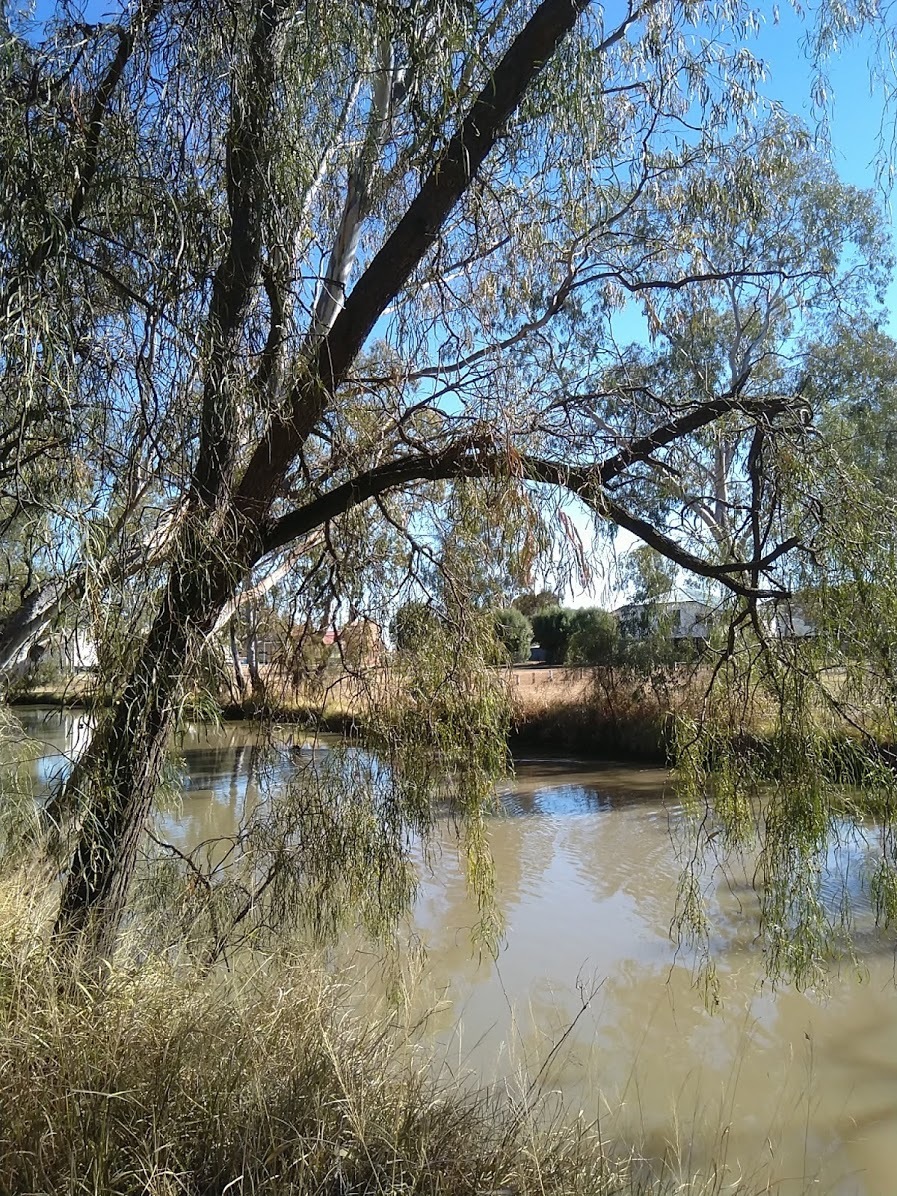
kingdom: Plantae
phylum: Tracheophyta
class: Magnoliopsida
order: Fabales
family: Fabaceae
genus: Acacia
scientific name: Acacia salicina
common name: Broughton willow wattle
